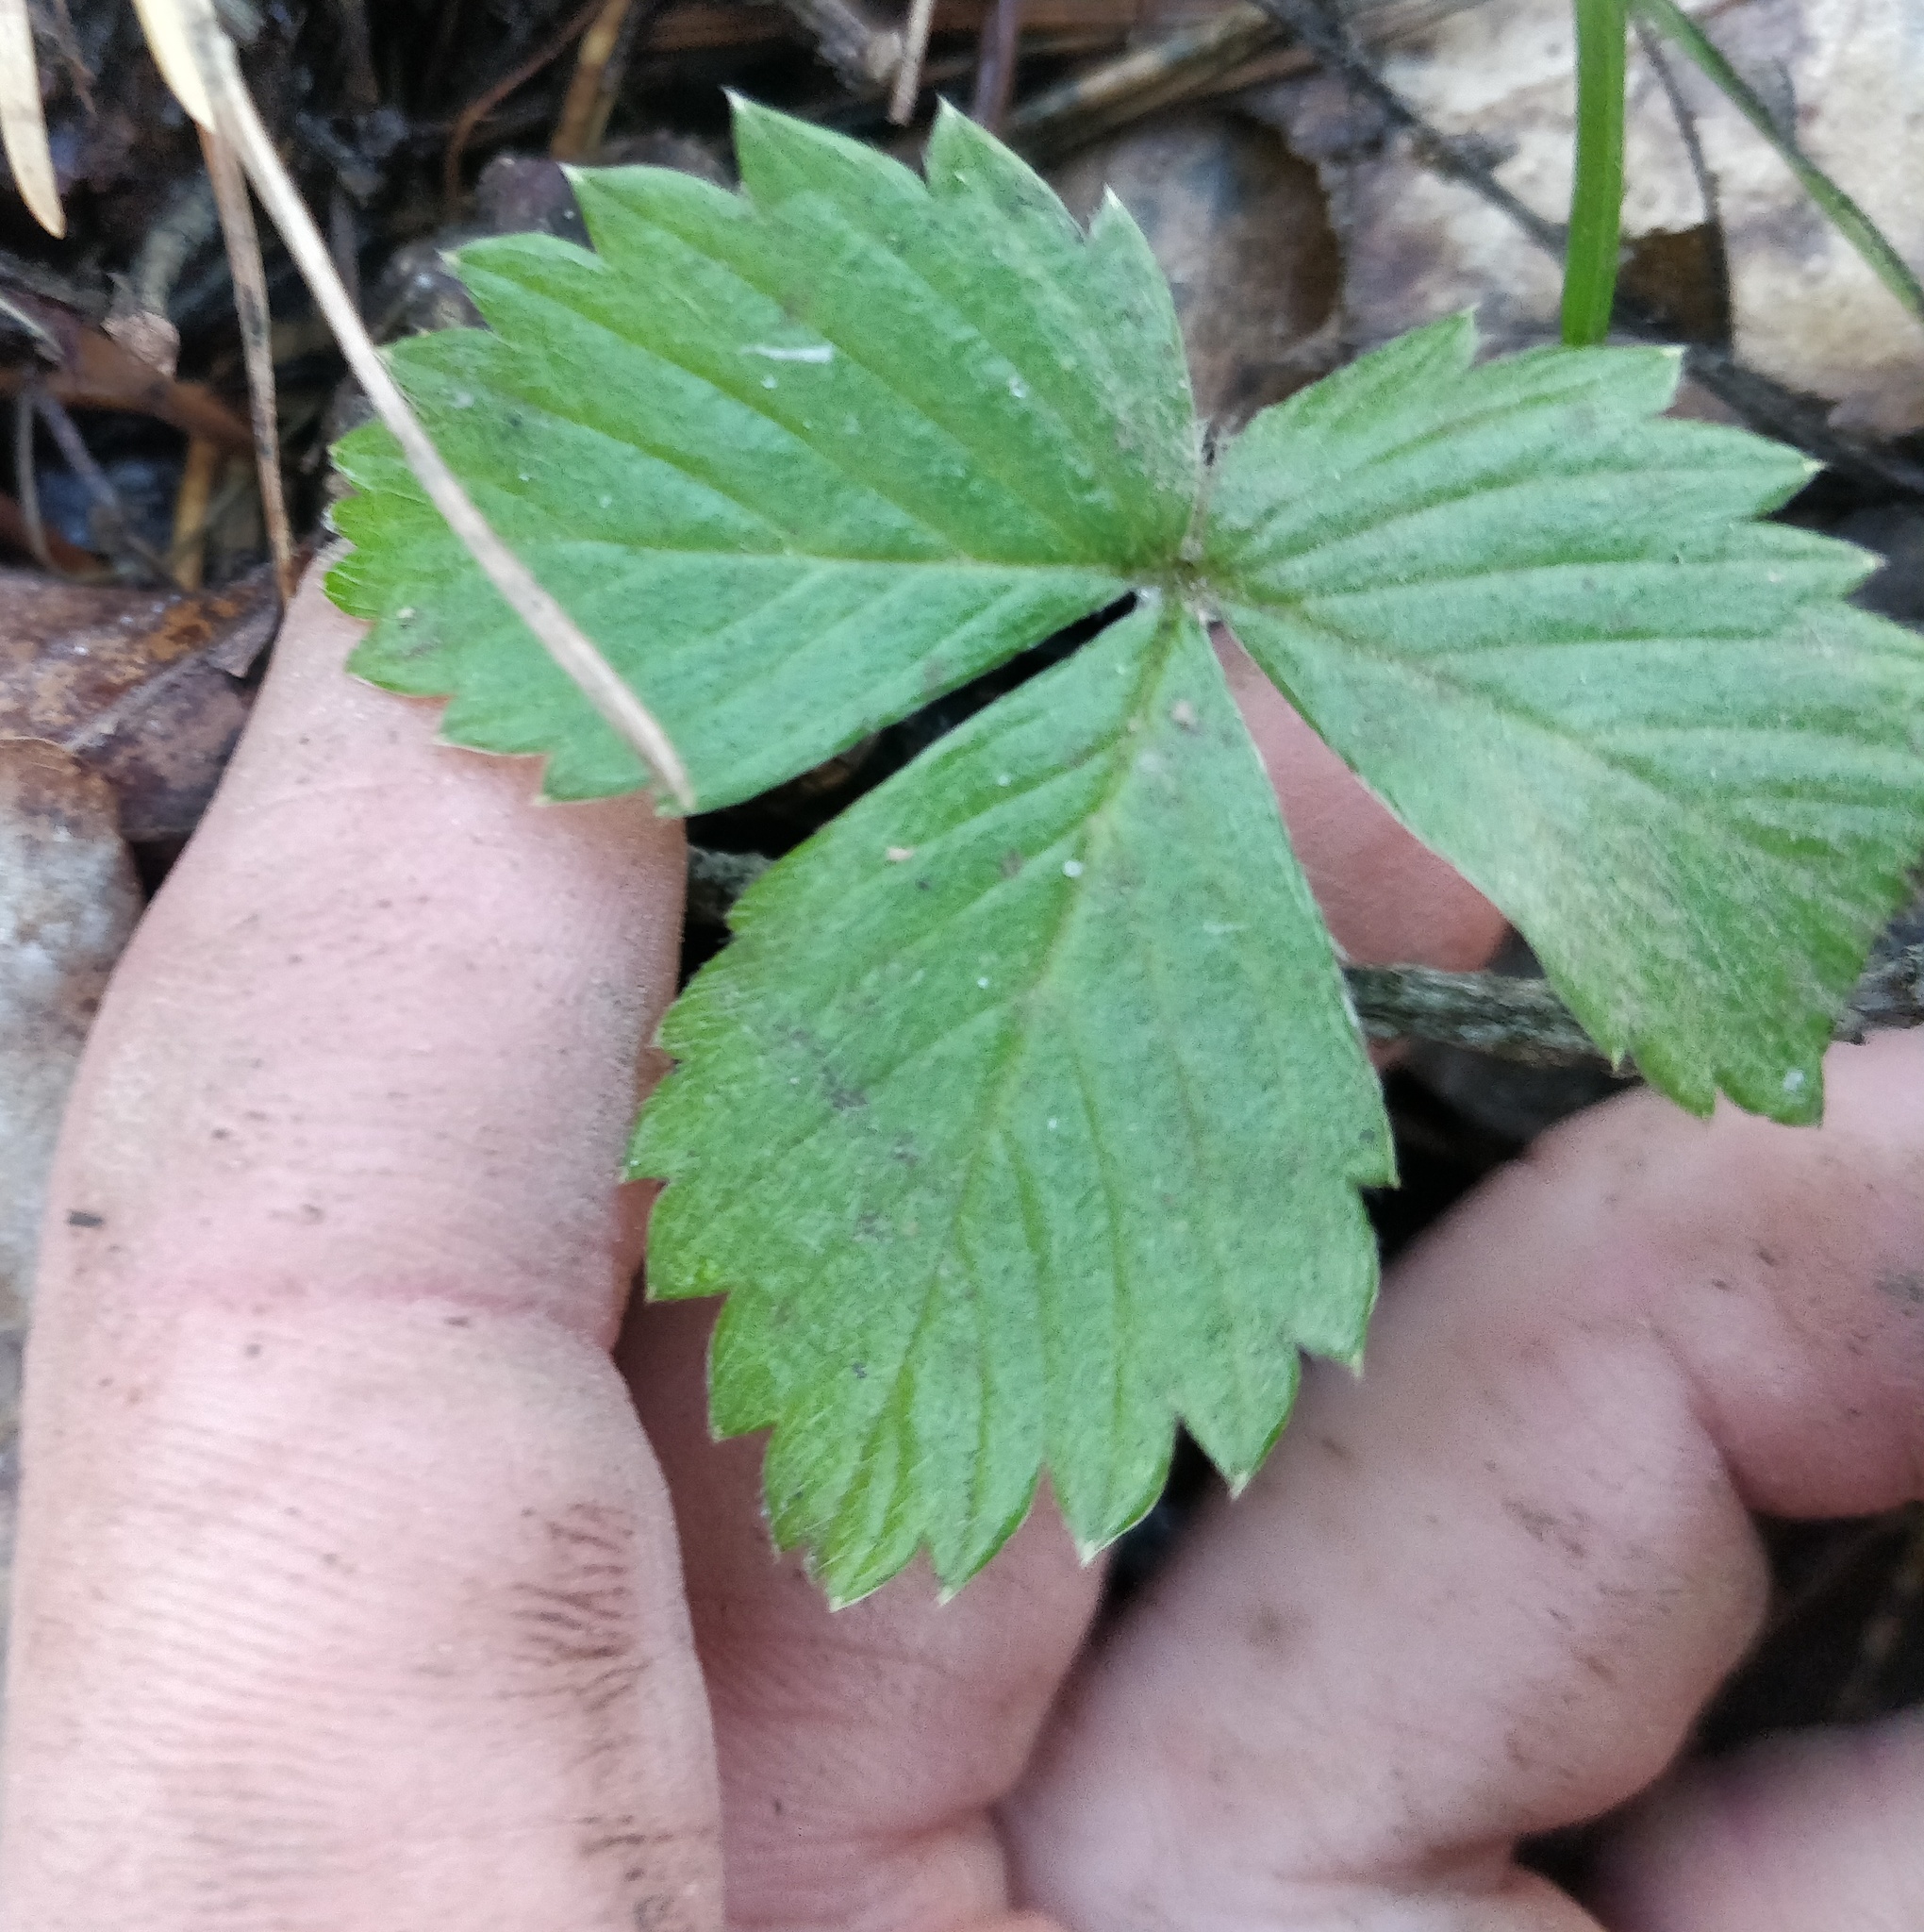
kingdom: Plantae
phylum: Tracheophyta
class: Magnoliopsida
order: Rosales
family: Rosaceae
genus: Fragaria
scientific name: Fragaria vesca
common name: Wild strawberry
